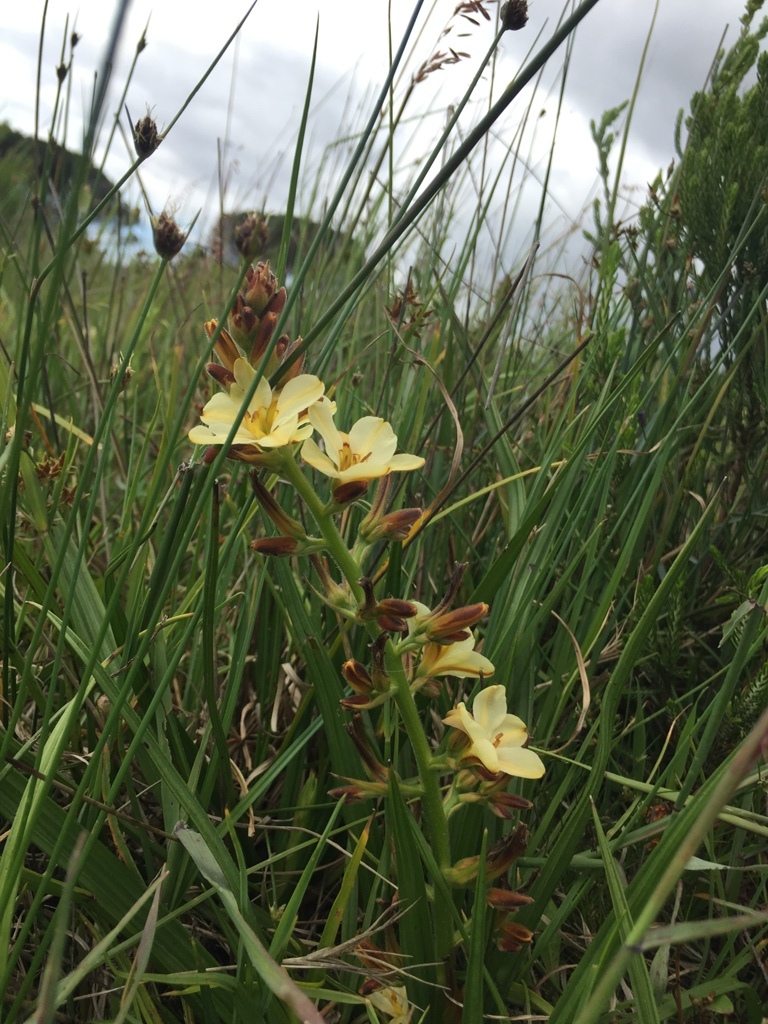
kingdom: Plantae
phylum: Tracheophyta
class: Liliopsida
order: Commelinales
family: Haemodoraceae
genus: Wachendorfia
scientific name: Wachendorfia brachyandra
